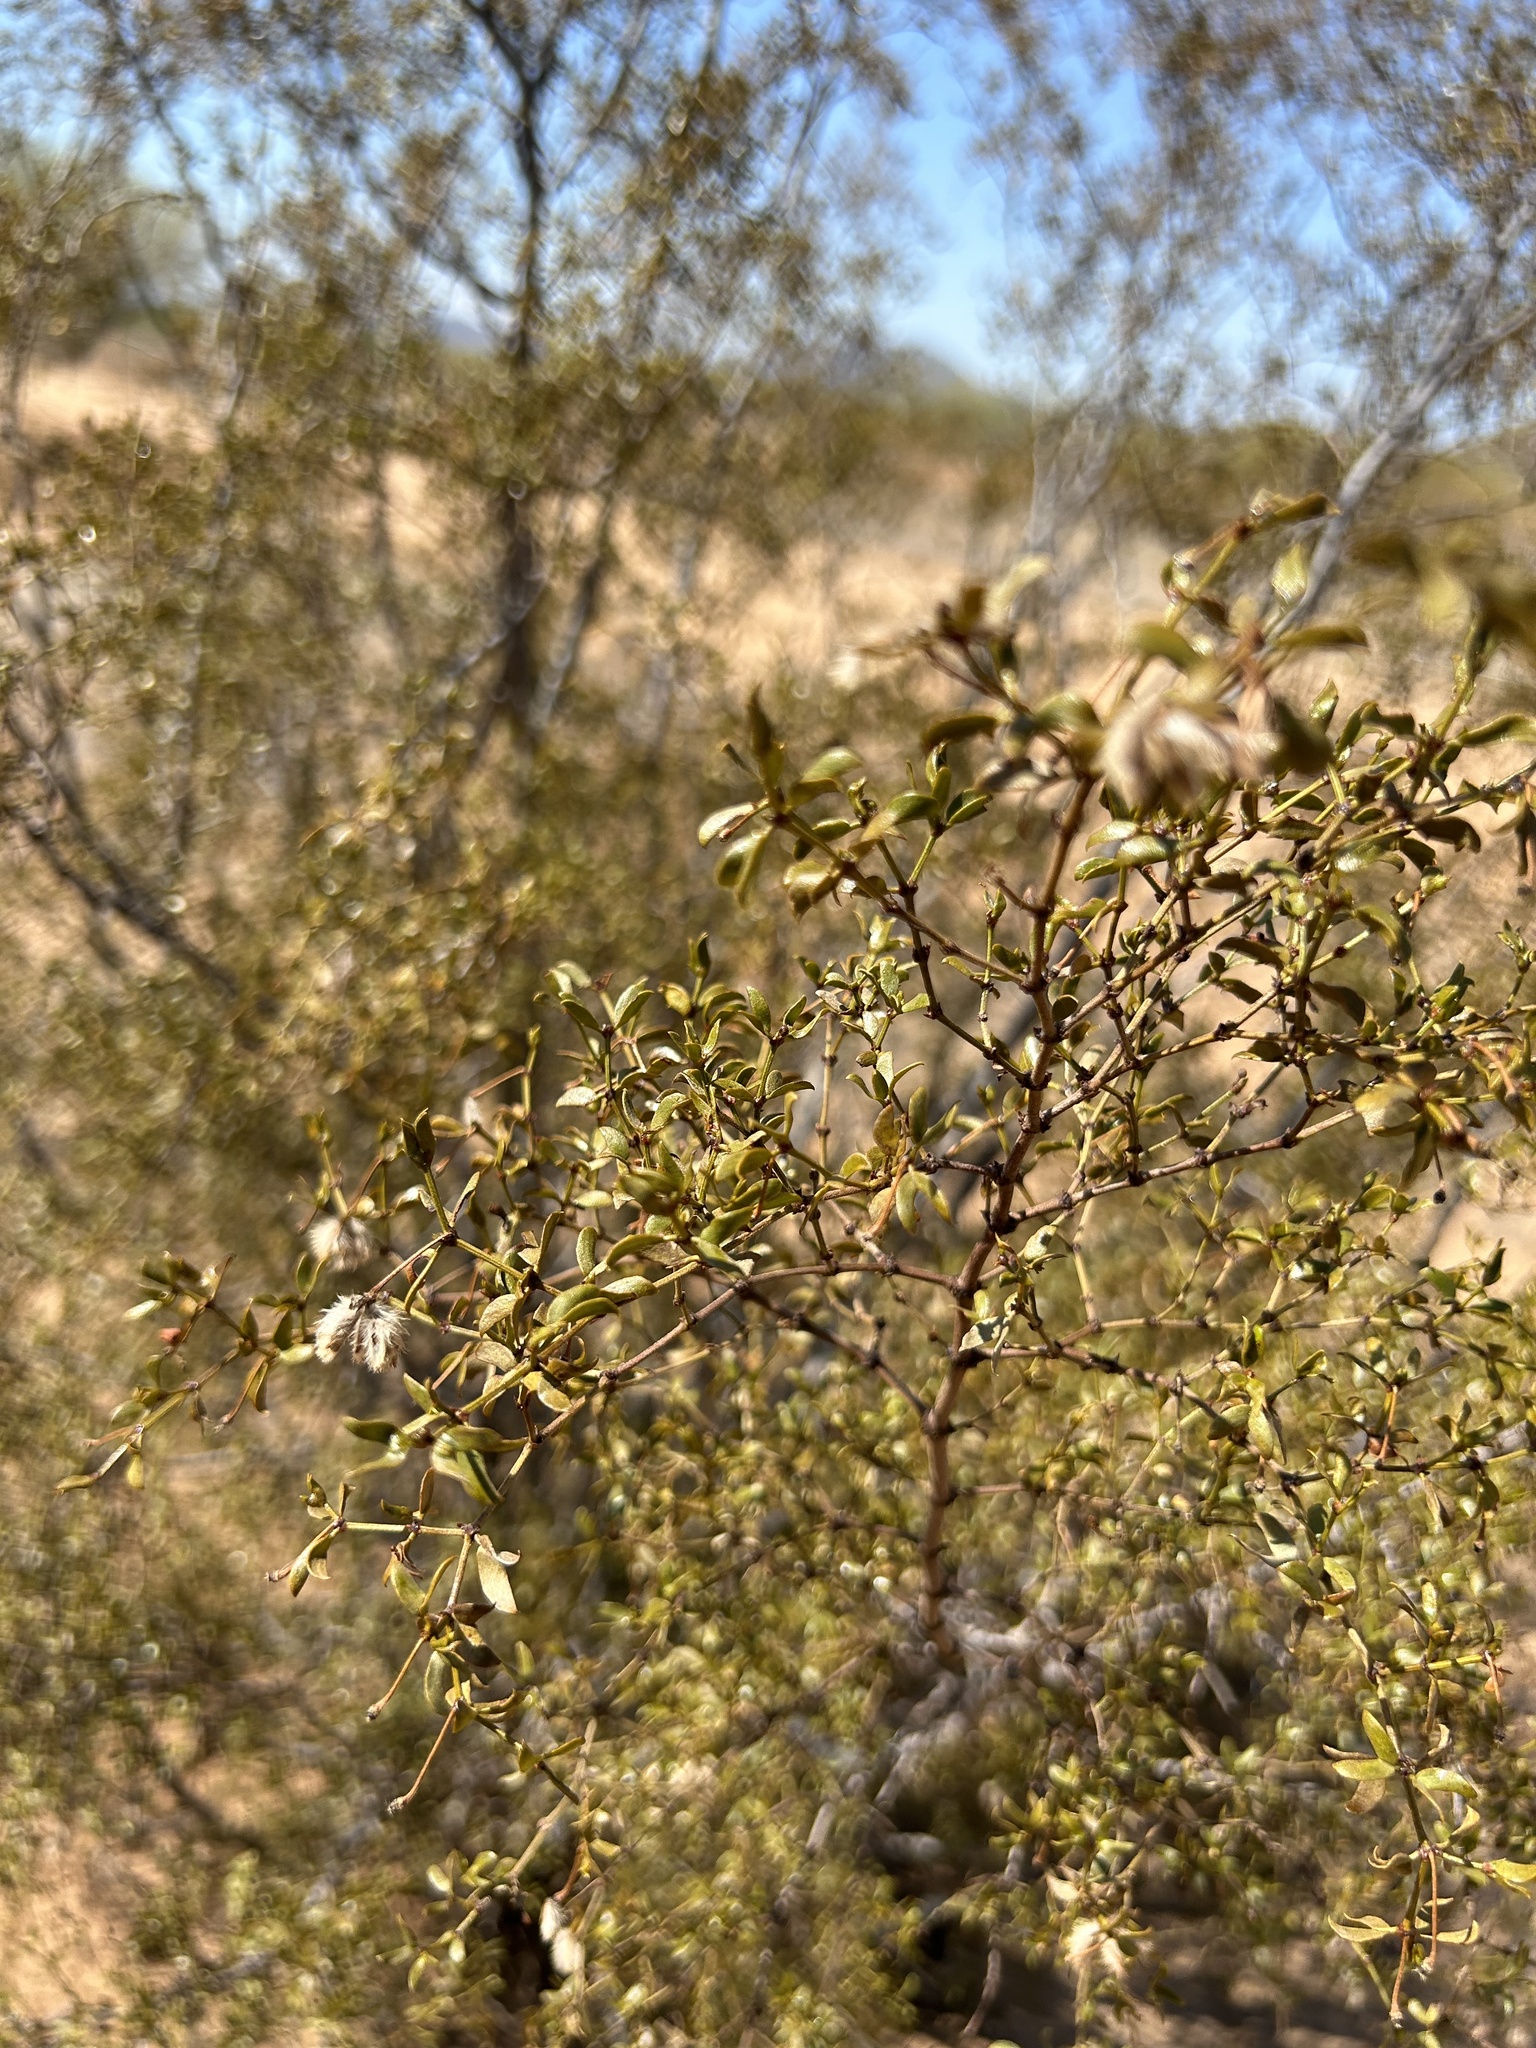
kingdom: Plantae
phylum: Tracheophyta
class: Magnoliopsida
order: Zygophyllales
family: Zygophyllaceae
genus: Larrea
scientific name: Larrea tridentata
